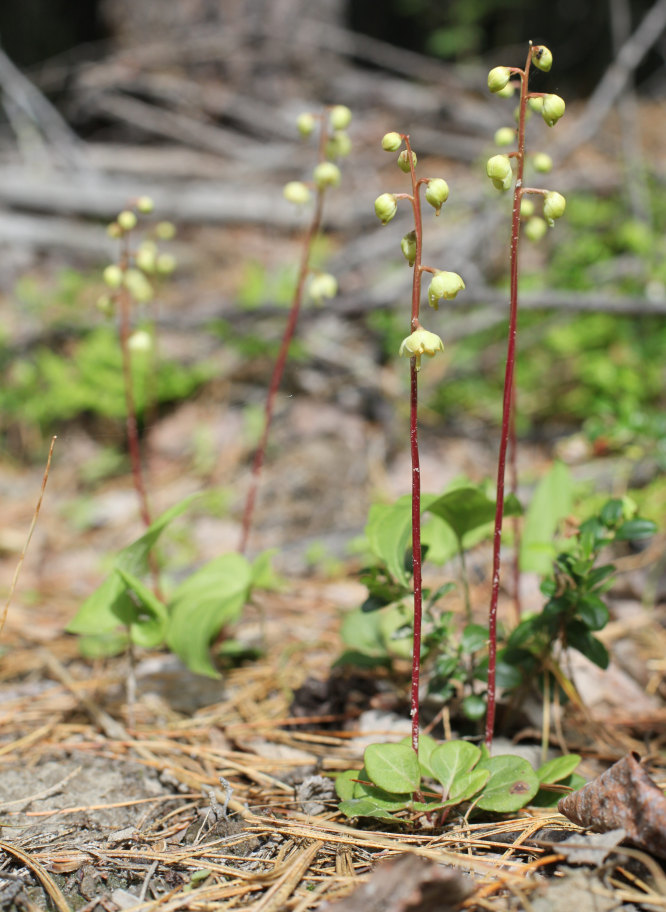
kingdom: Plantae
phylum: Tracheophyta
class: Magnoliopsida
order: Ericales
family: Ericaceae
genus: Pyrola
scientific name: Pyrola chlorantha
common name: Green wintergreen
